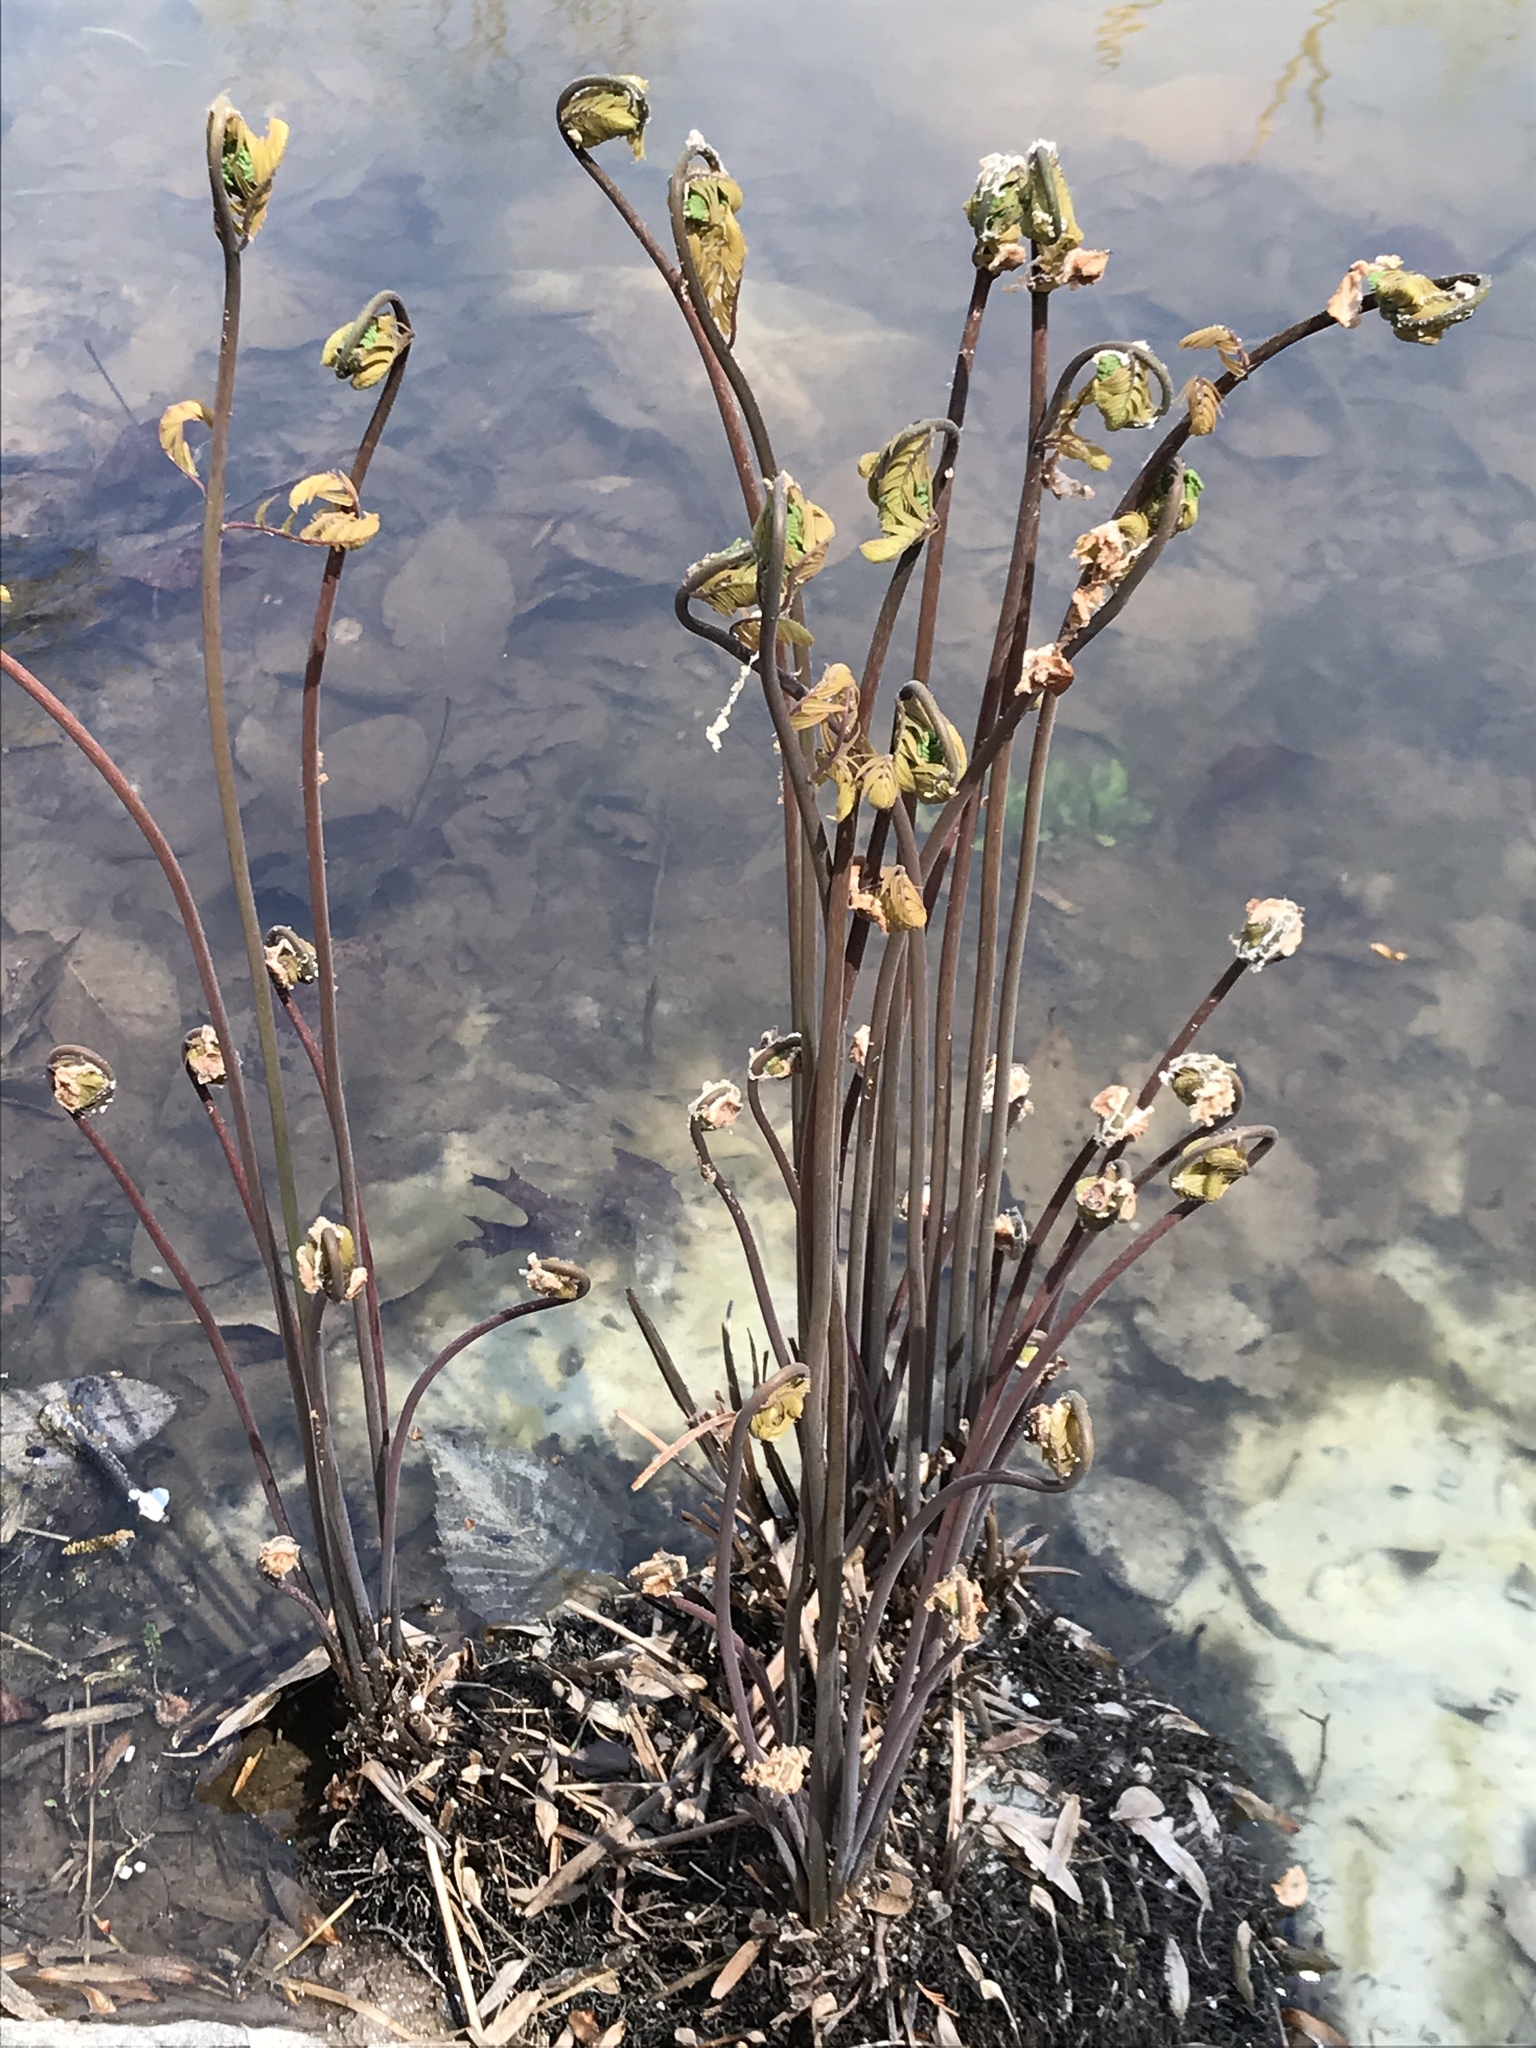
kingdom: Plantae
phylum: Tracheophyta
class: Polypodiopsida
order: Osmundales
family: Osmundaceae
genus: Osmunda
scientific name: Osmunda spectabilis
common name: American royal fern
